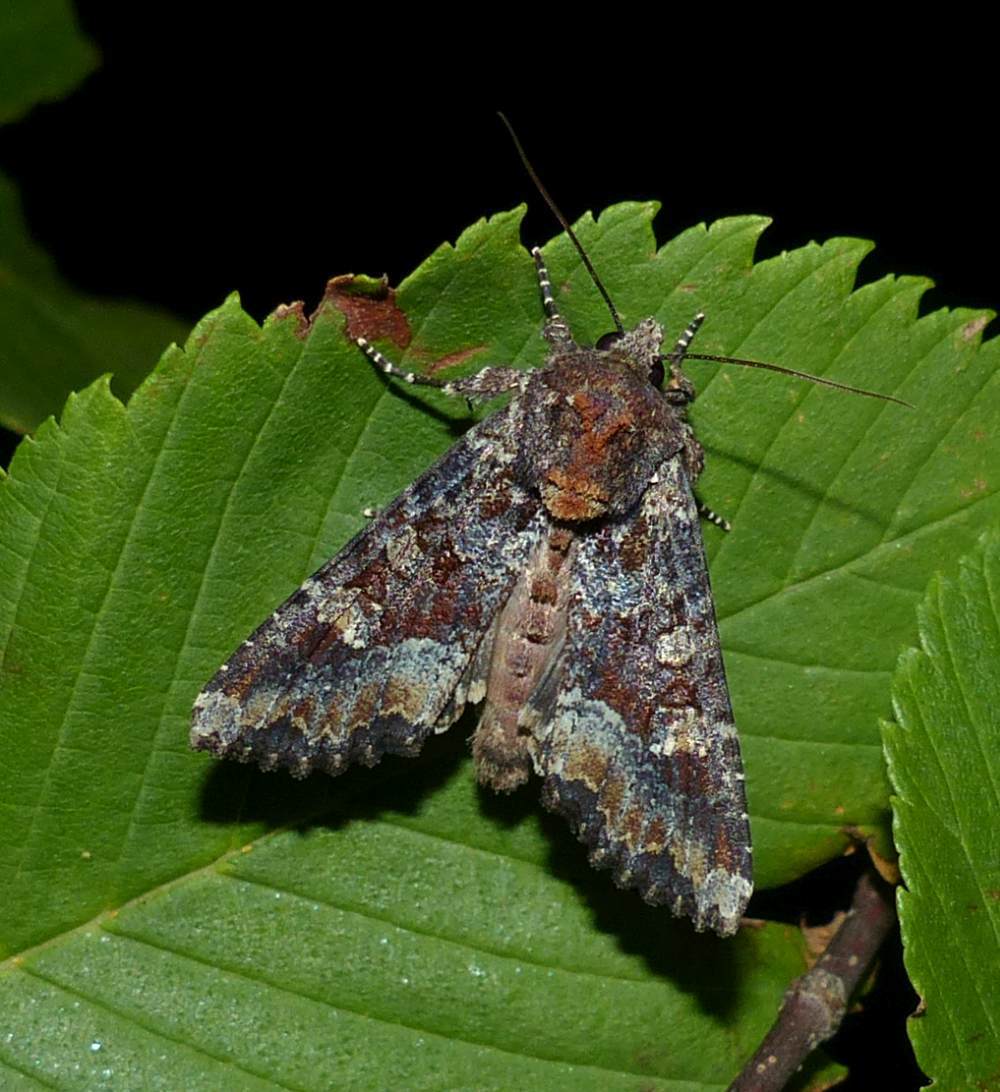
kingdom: Animalia
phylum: Arthropoda
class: Insecta
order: Lepidoptera
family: Noctuidae
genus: Apamea
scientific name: Apamea amputatrix
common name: Yellow-headed cutworm moth
